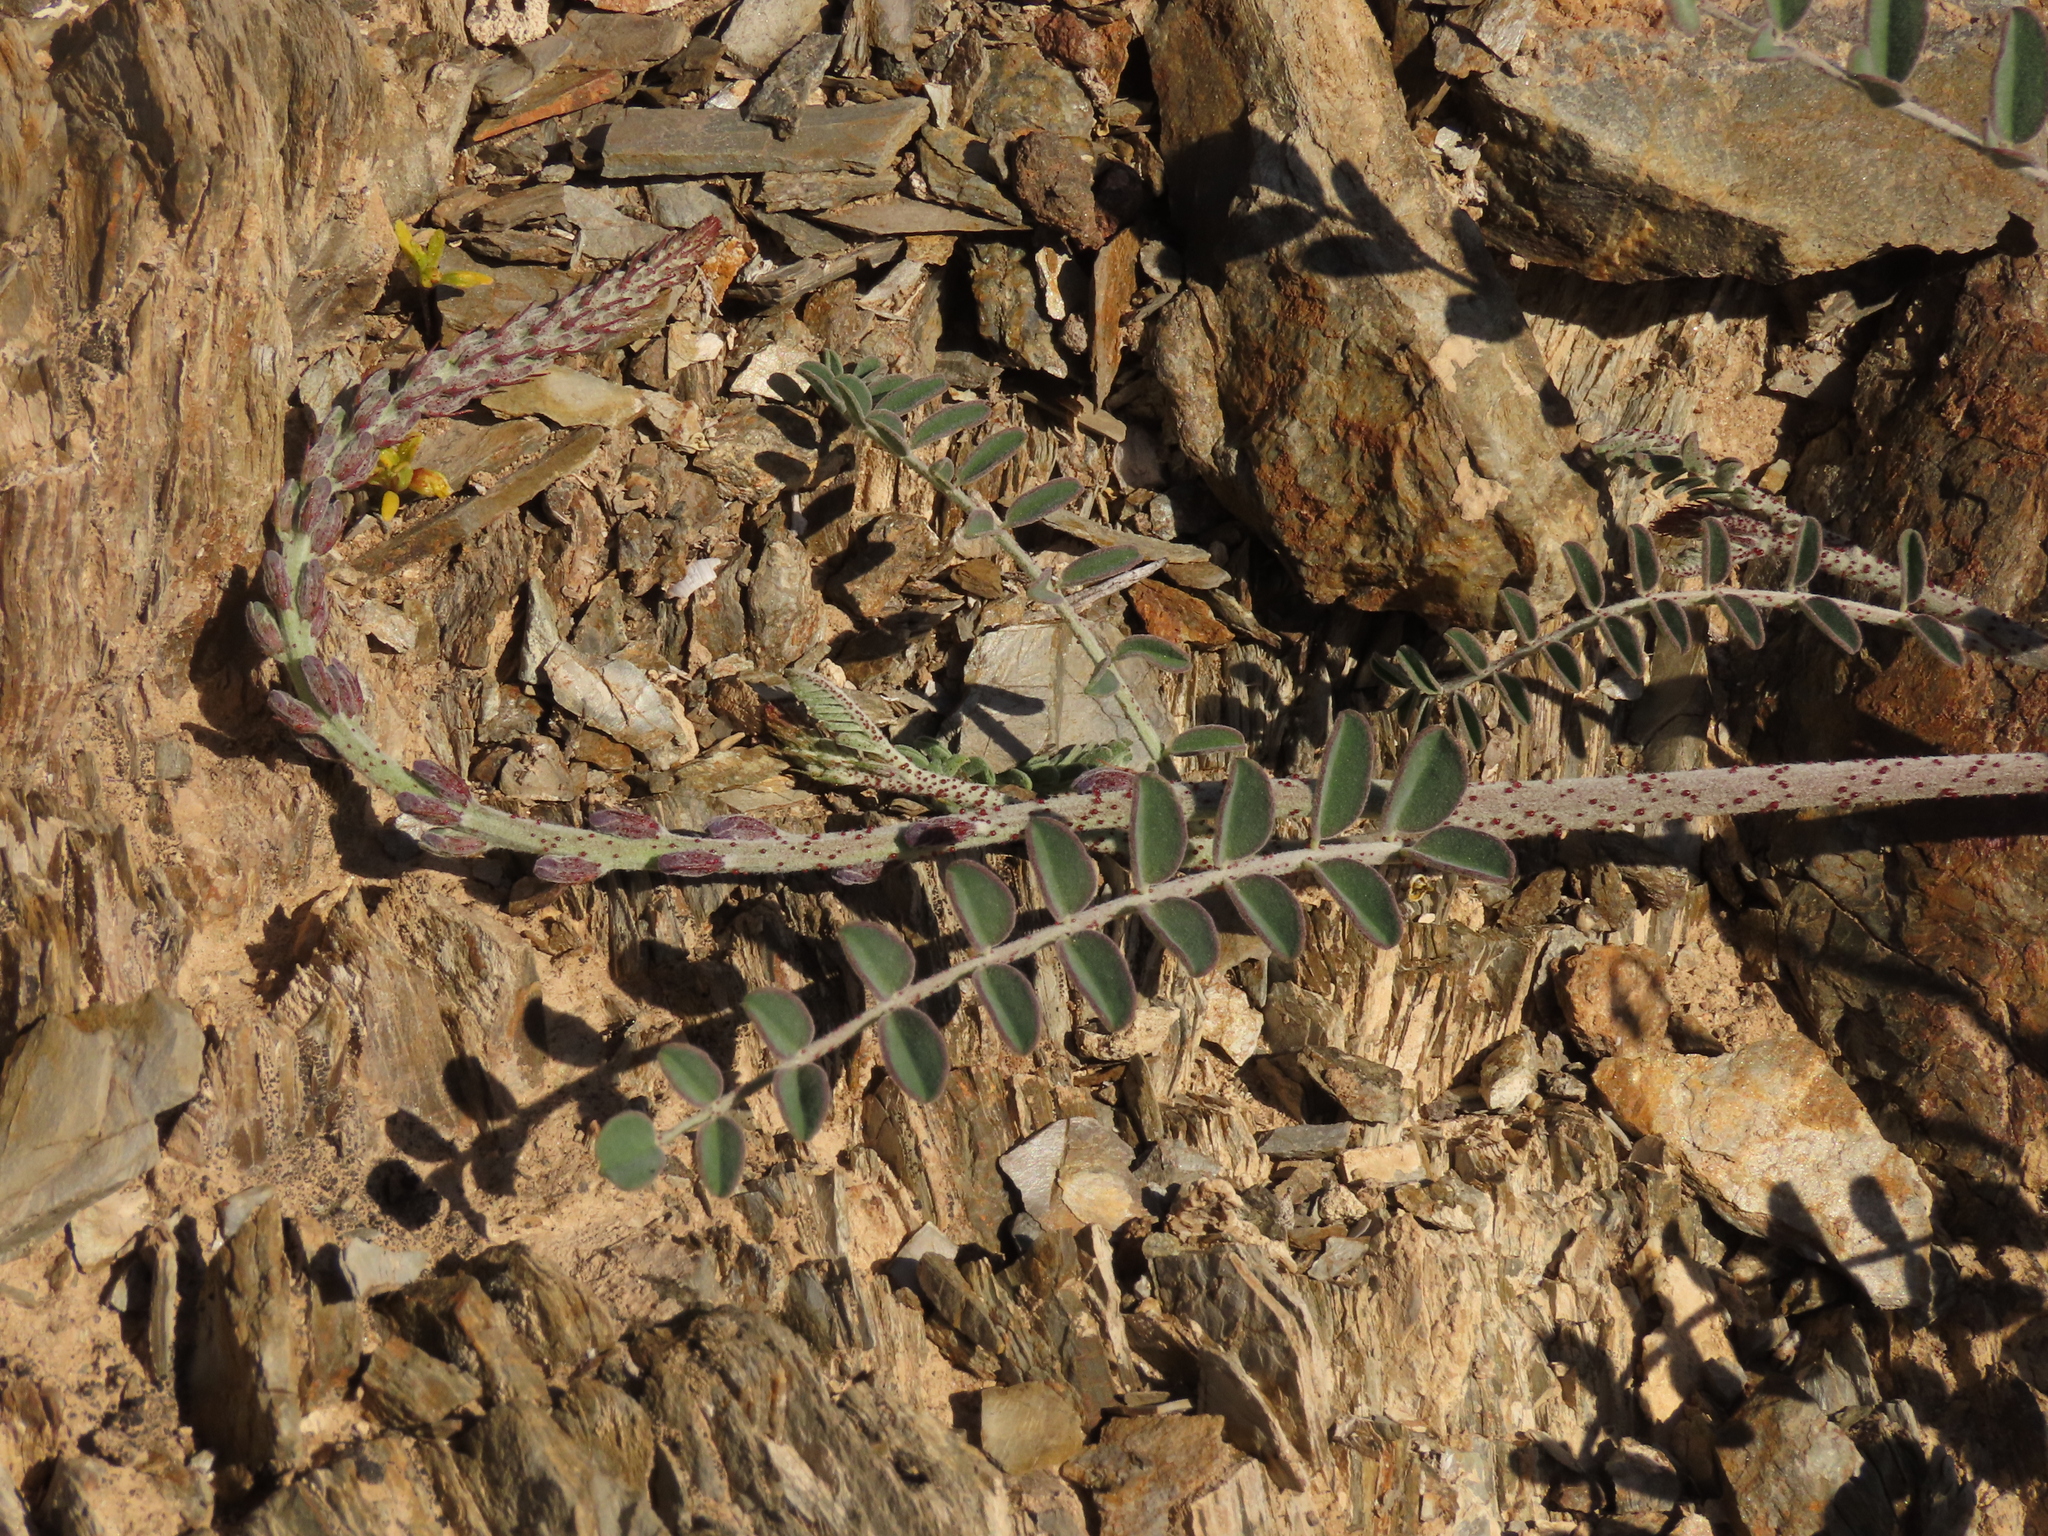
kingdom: Plantae
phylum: Tracheophyta
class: Magnoliopsida
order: Fabales
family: Fabaceae
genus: Errazurizia
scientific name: Errazurizia multifoliolata
